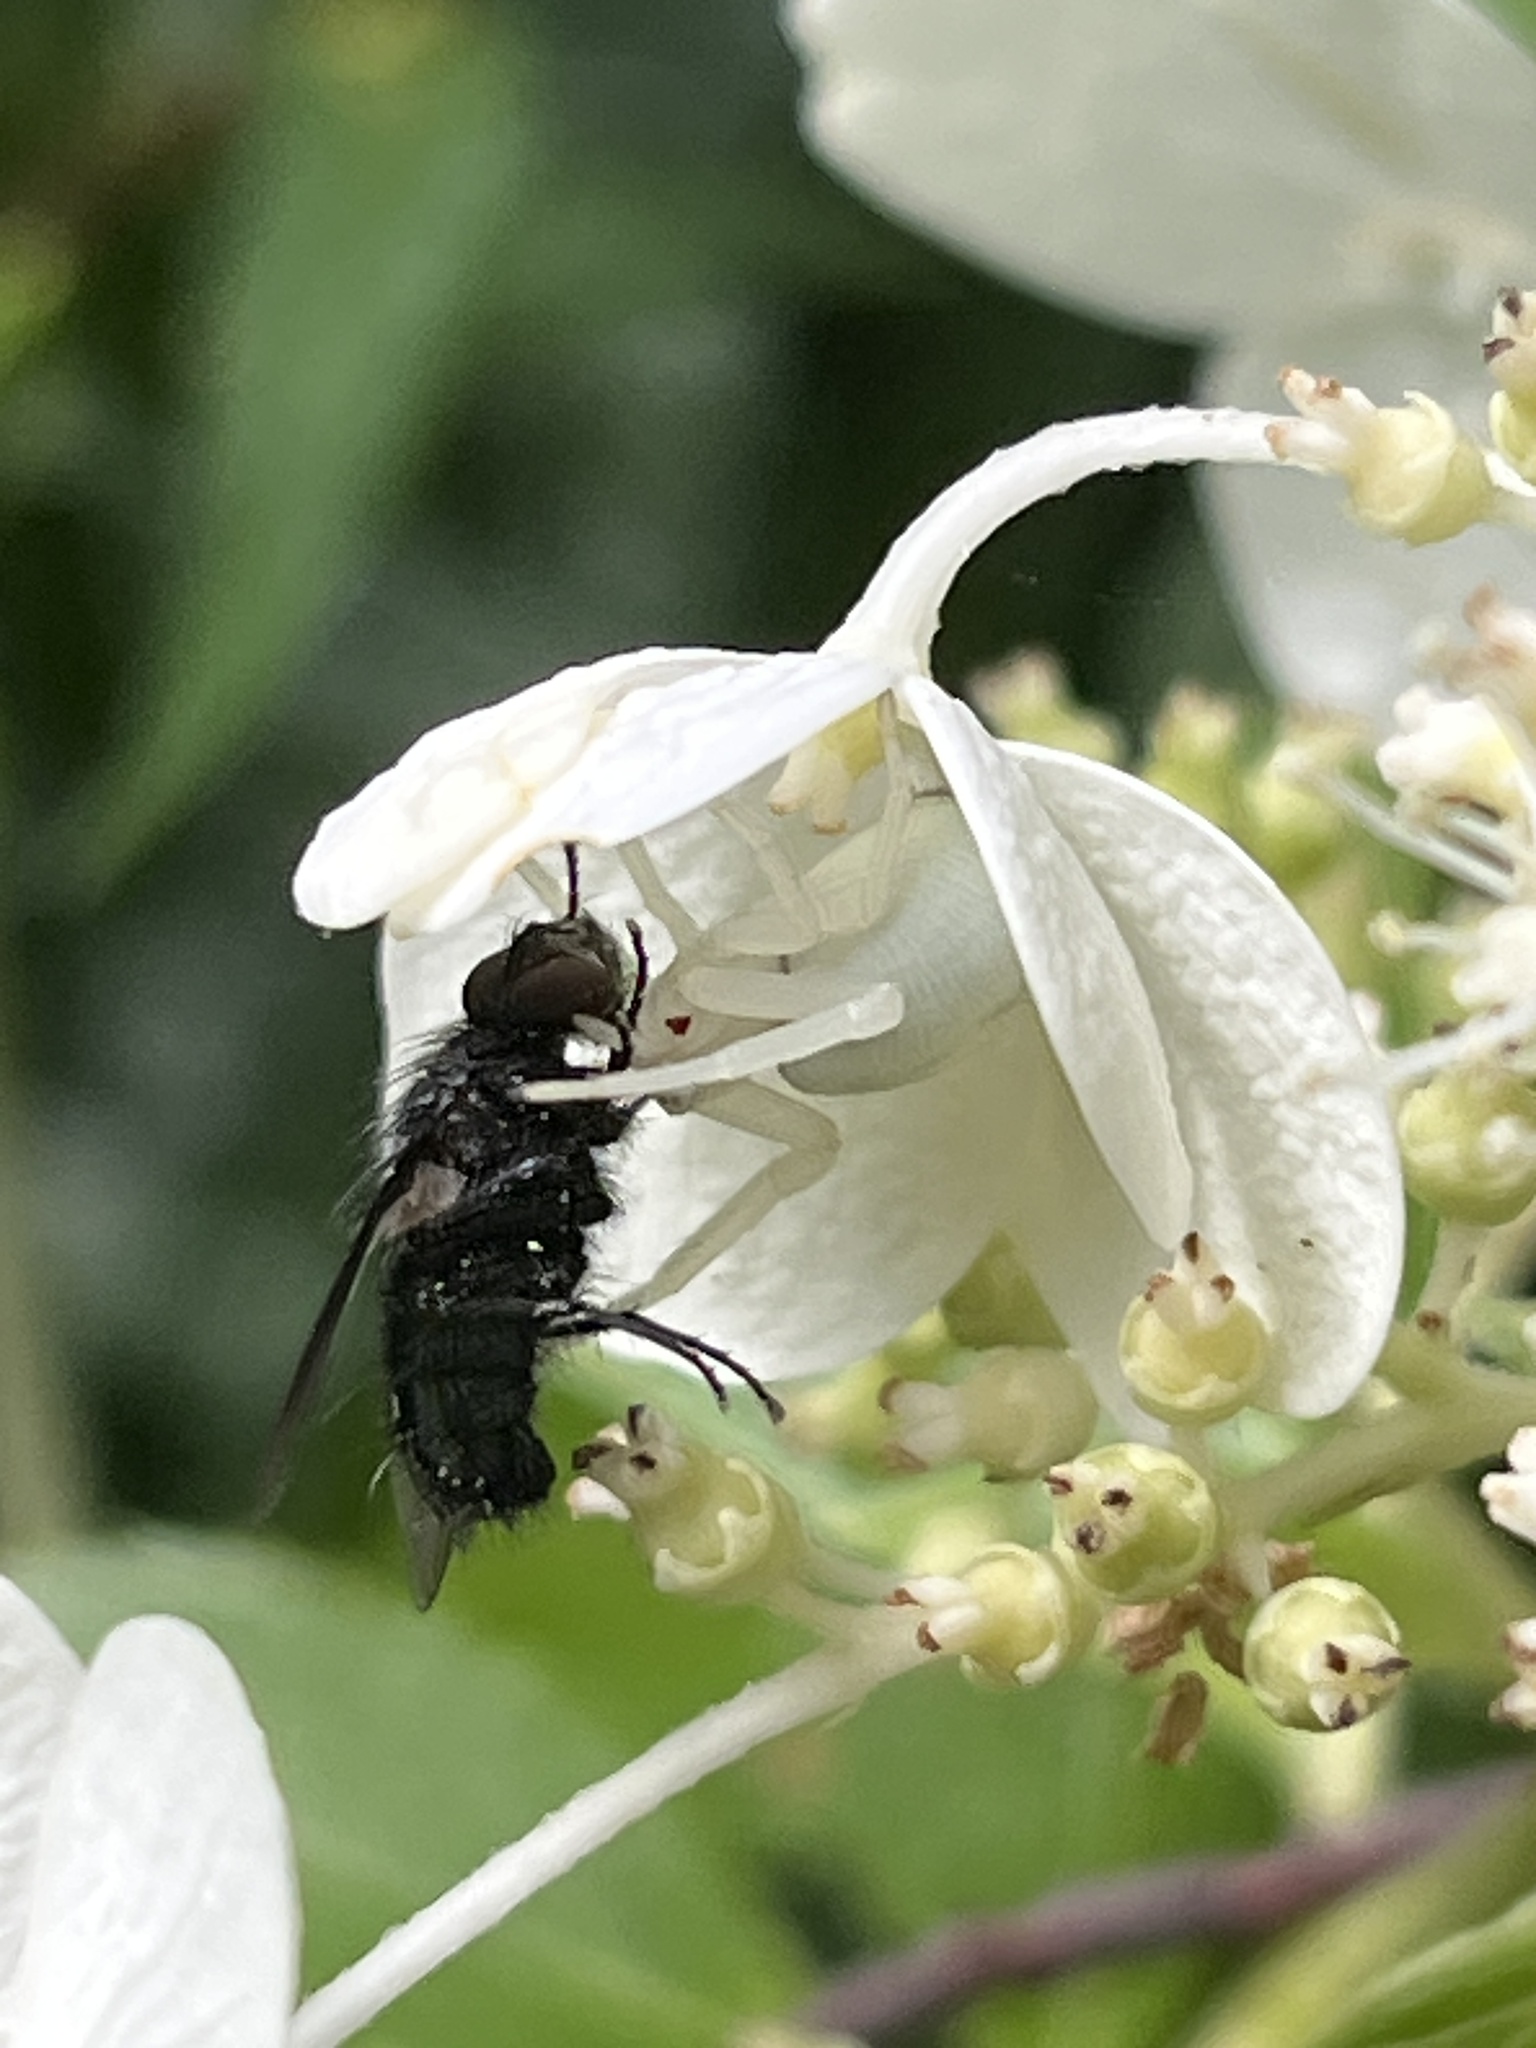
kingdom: Animalia
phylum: Arthropoda
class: Arachnida
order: Araneae
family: Thomisidae
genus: Misumena
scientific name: Misumena vatia
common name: Goldenrod crab spider
